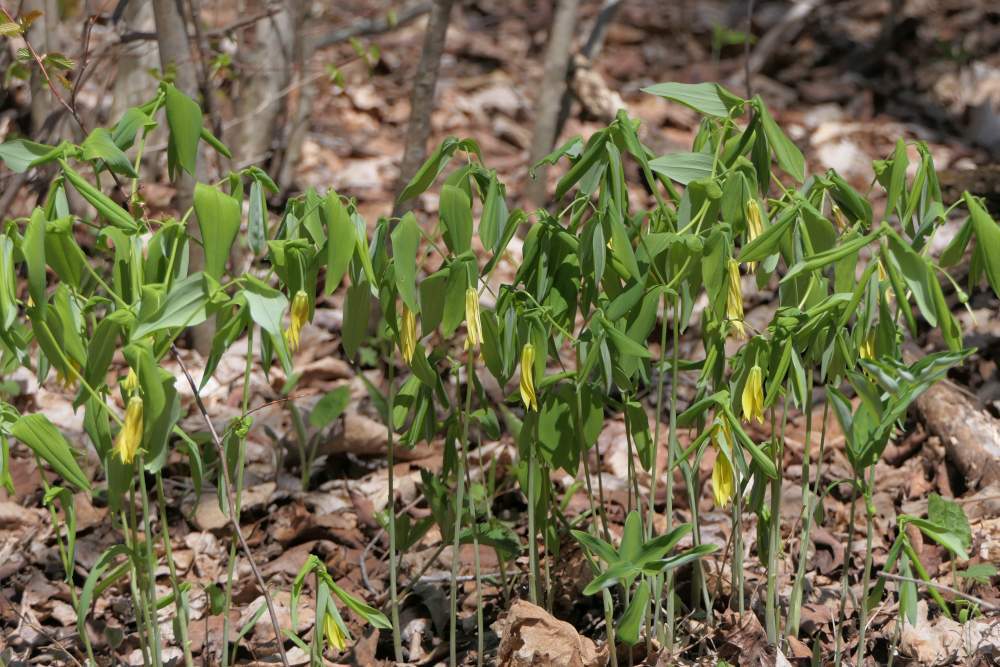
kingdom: Plantae
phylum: Tracheophyta
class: Liliopsida
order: Liliales
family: Colchicaceae
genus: Uvularia
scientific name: Uvularia grandiflora
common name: Bellwort
